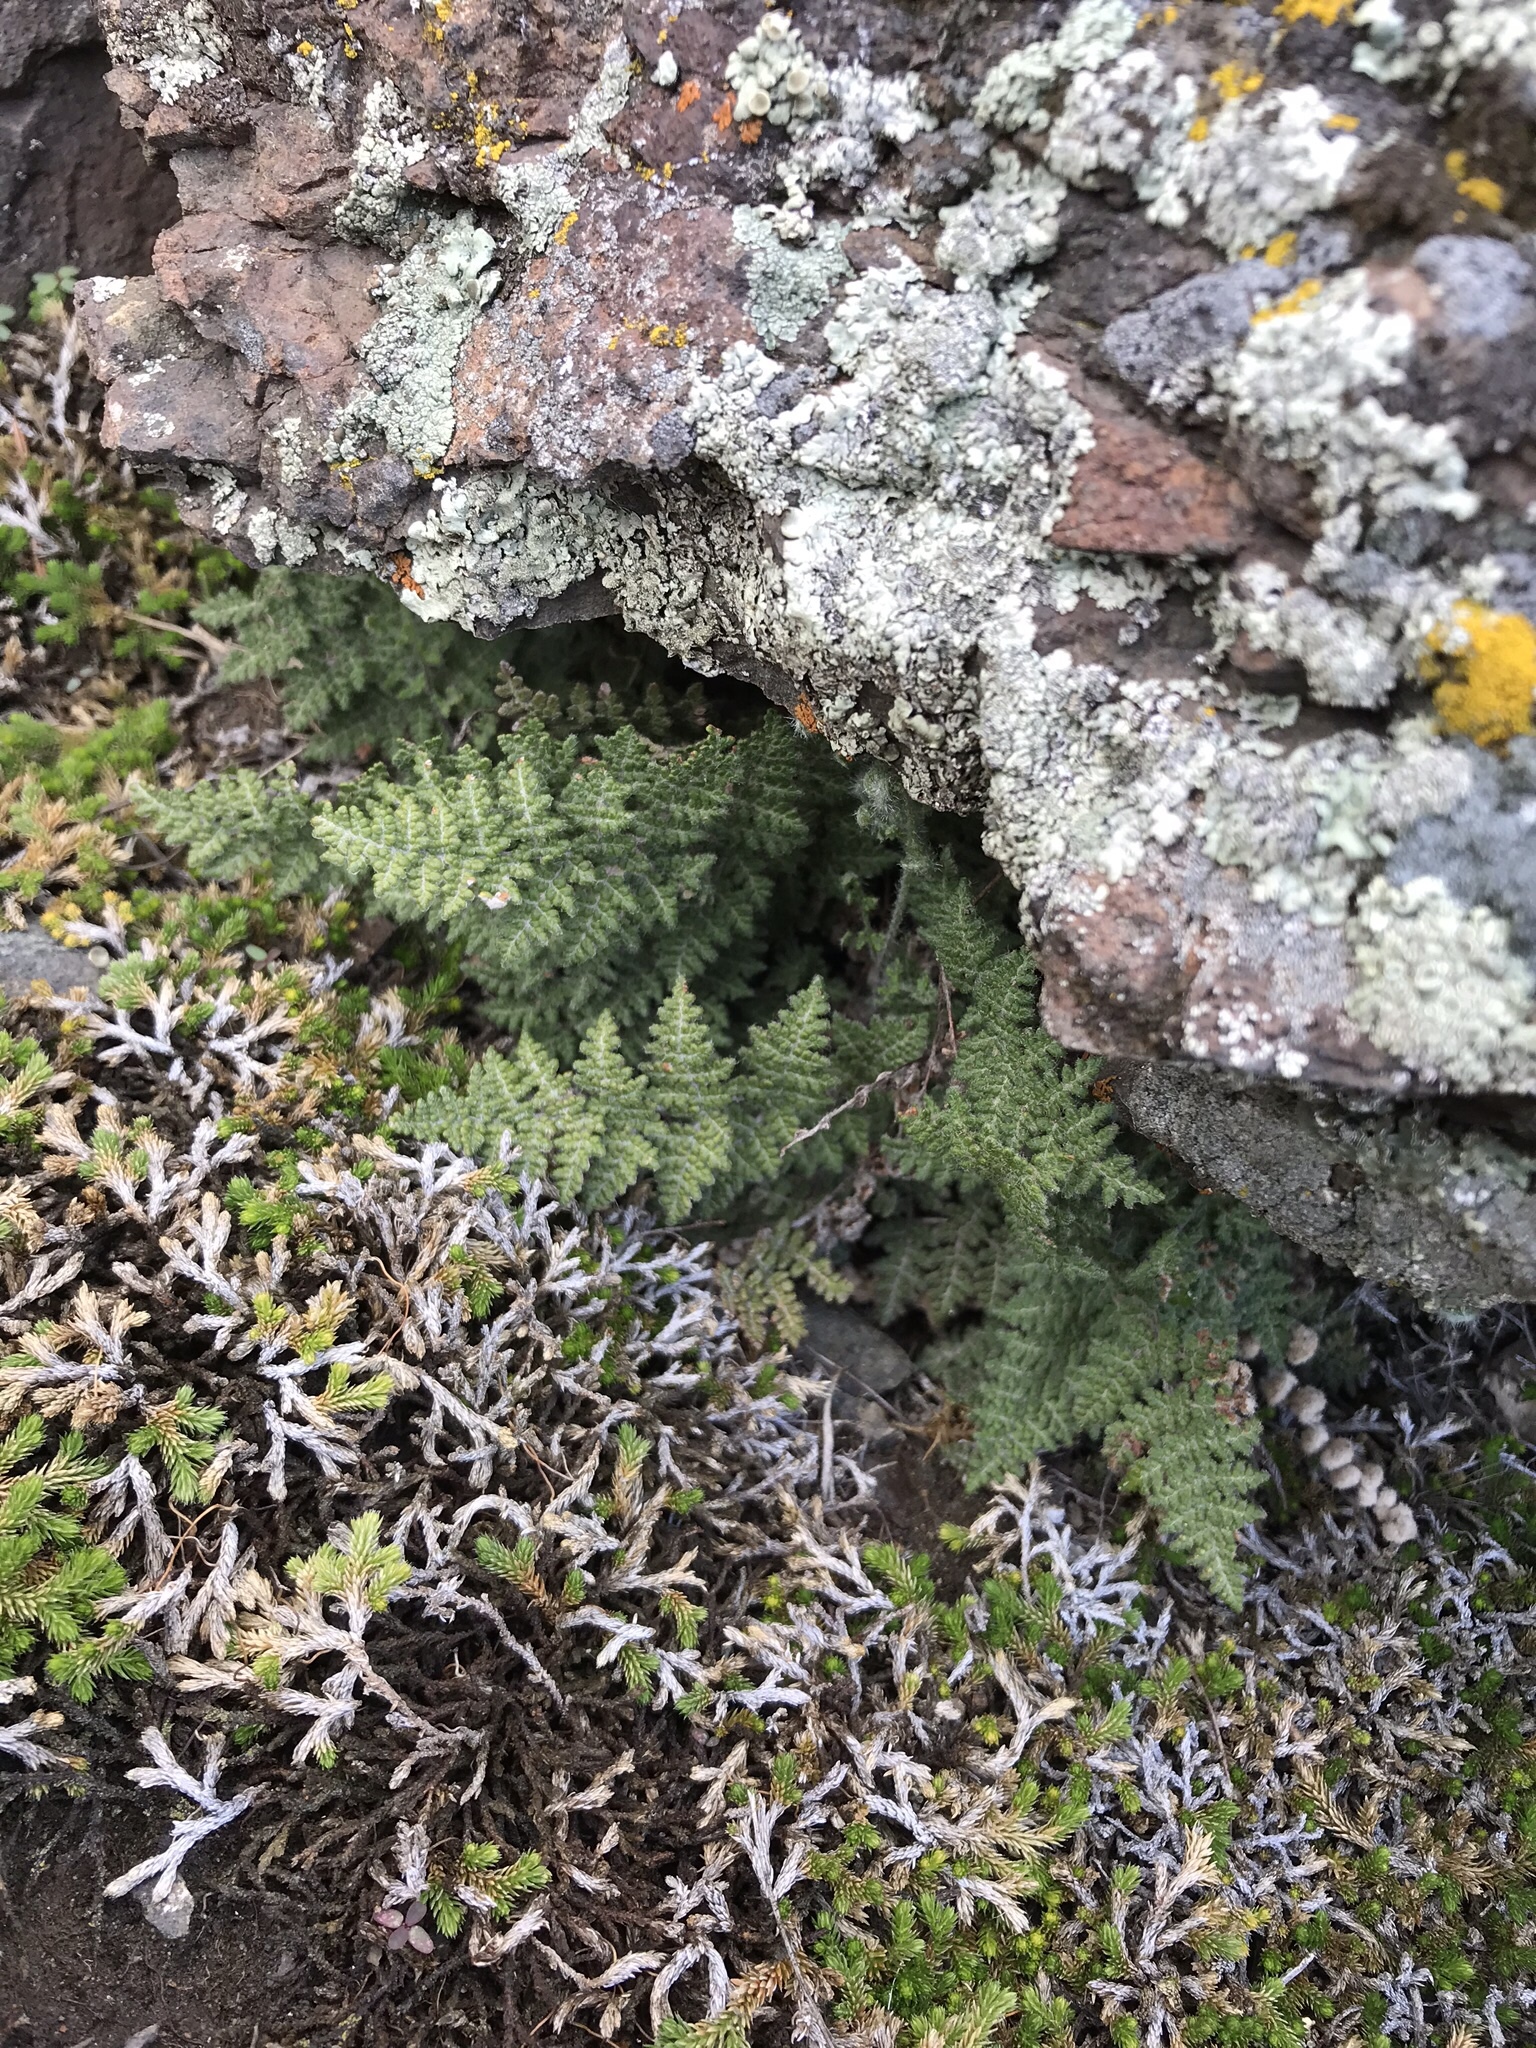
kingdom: Plantae
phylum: Tracheophyta
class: Polypodiopsida
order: Polypodiales
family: Pteridaceae
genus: Myriopteris
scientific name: Myriopteris gracilis
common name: Fee's lip fern
